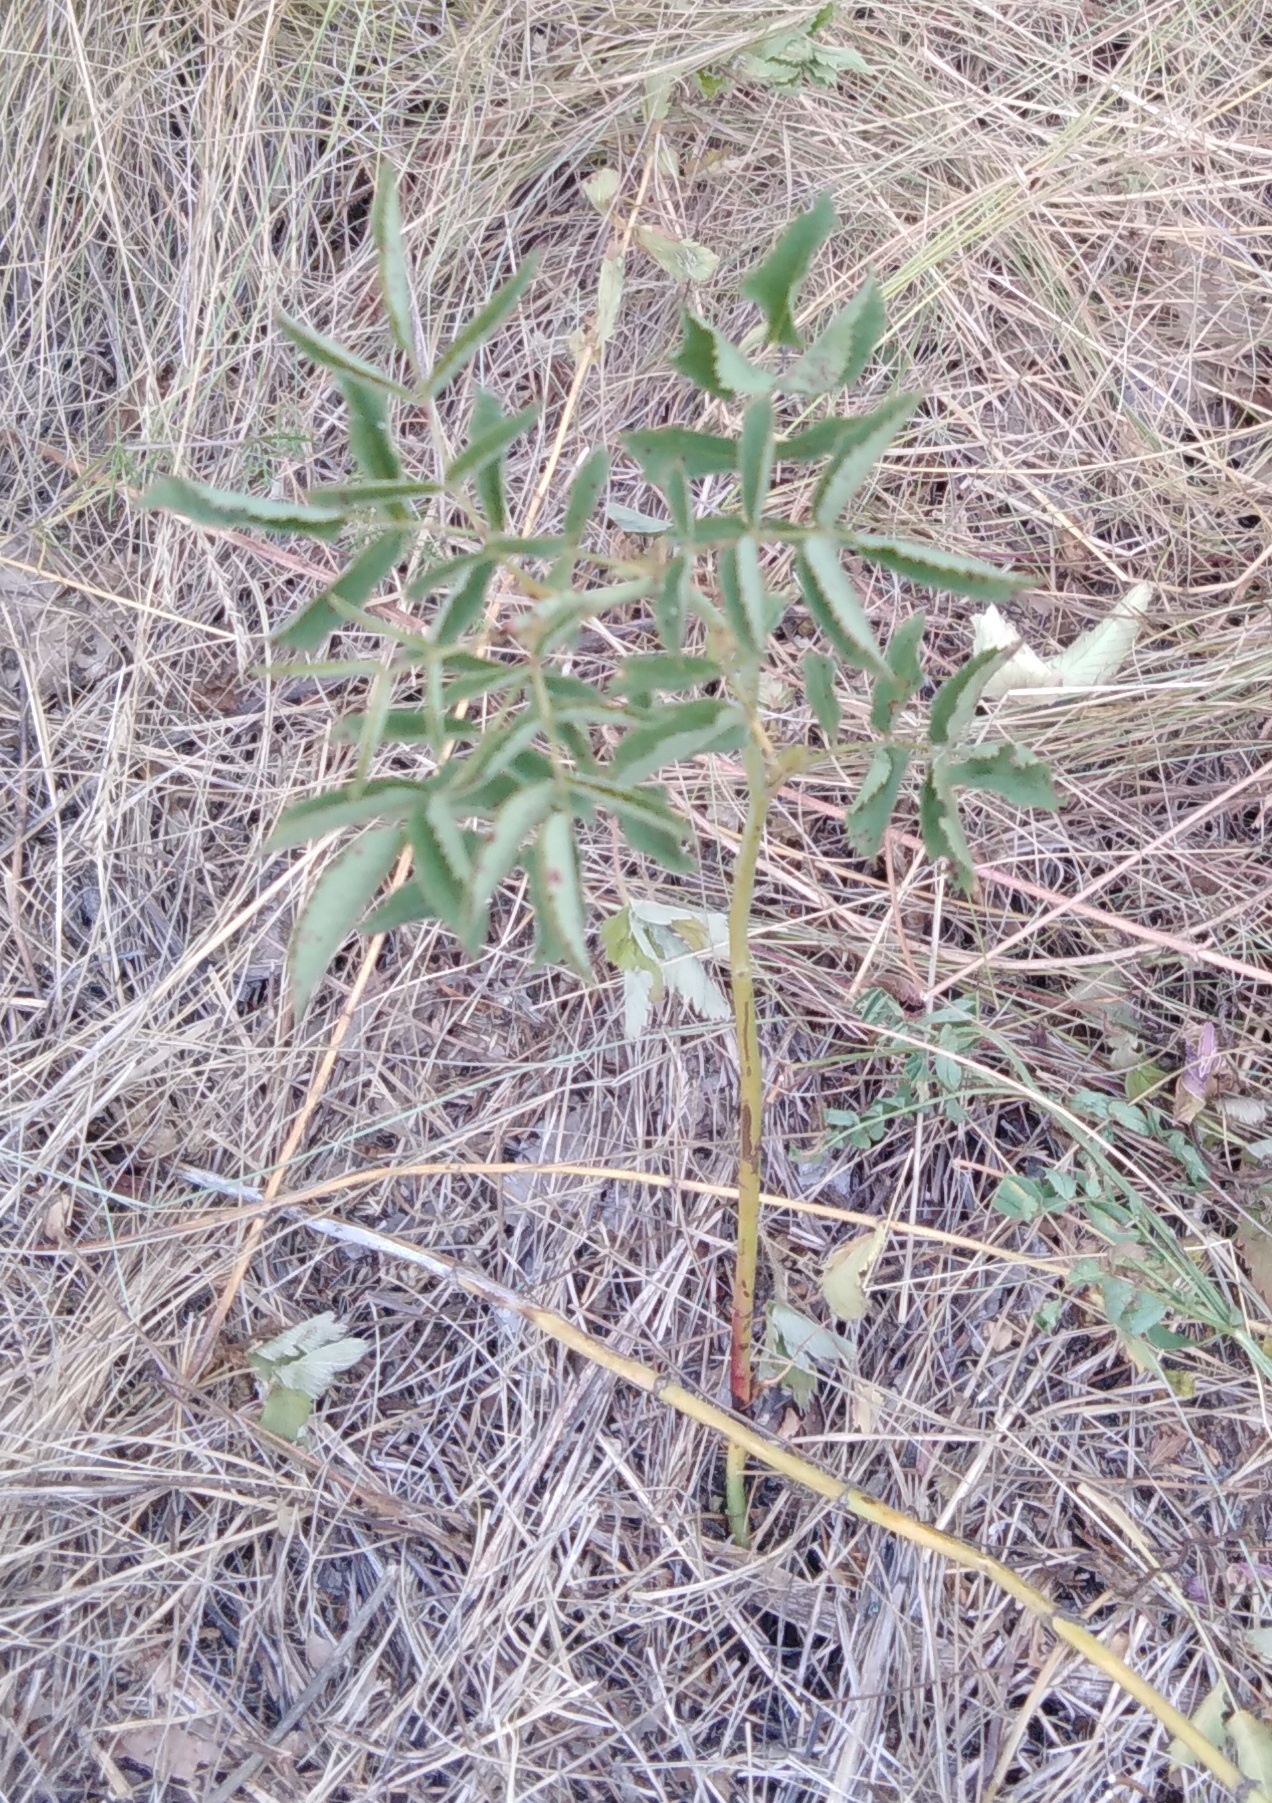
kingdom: Plantae
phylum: Tracheophyta
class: Magnoliopsida
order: Rosales
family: Rosaceae
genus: Sanguisorba
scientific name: Sanguisorba officinalis
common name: Great burnet
